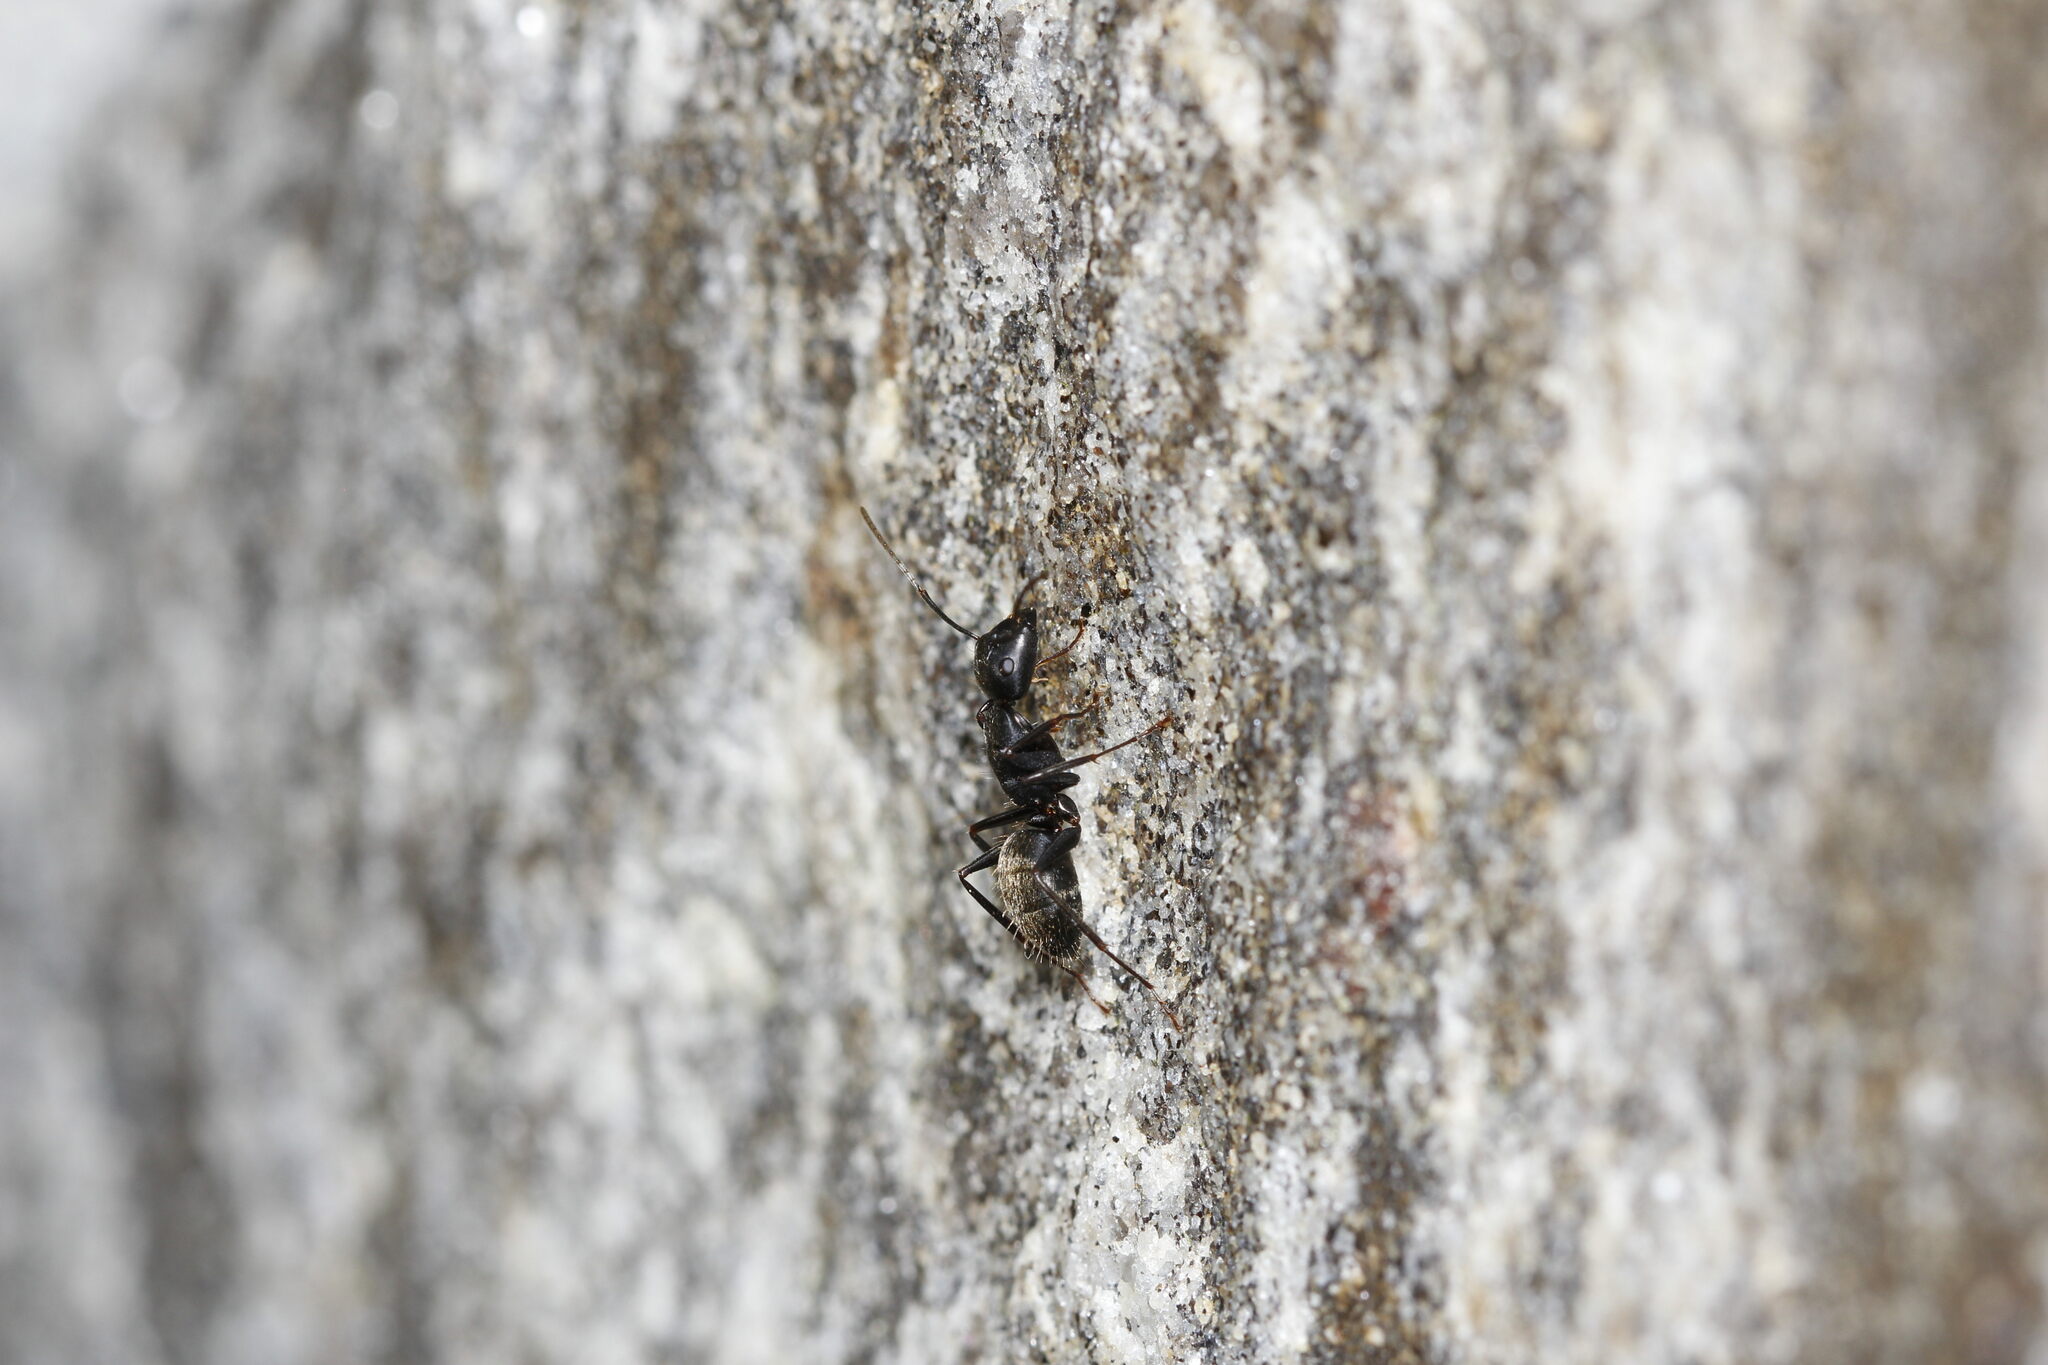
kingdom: Animalia
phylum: Arthropoda
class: Insecta
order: Hymenoptera
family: Formicidae
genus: Camponotus
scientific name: Camponotus pennsylvanicus
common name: Black carpenter ant
